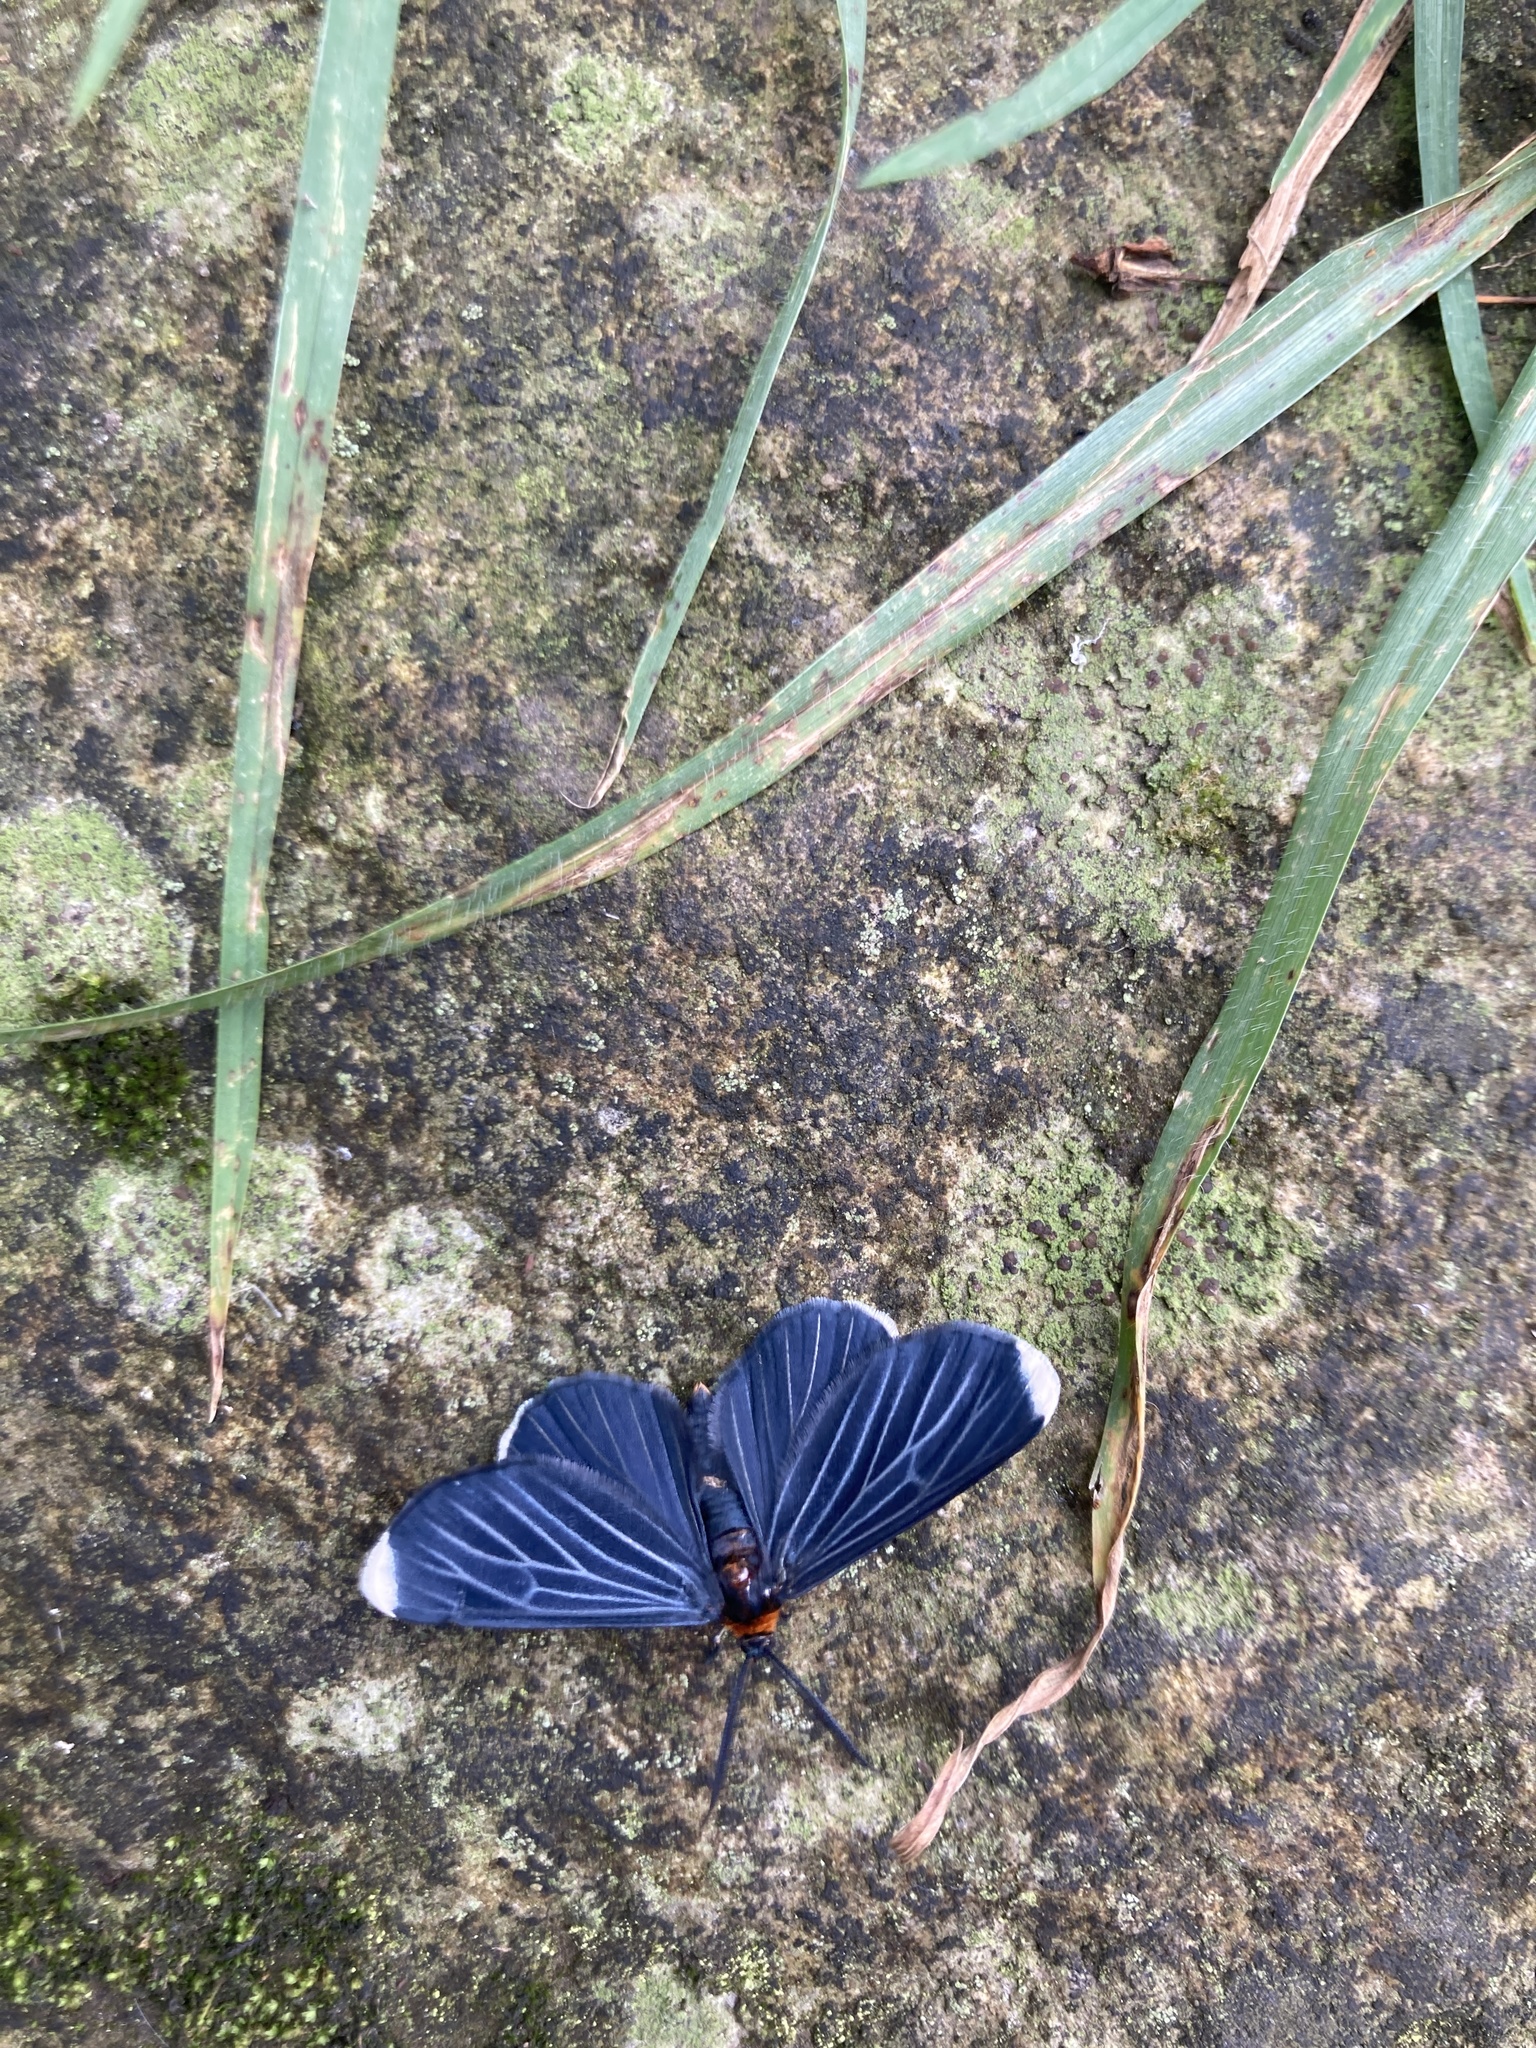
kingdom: Animalia
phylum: Arthropoda
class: Insecta
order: Lepidoptera
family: Geometridae
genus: Melanchroia
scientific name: Melanchroia chephise
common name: White-tipped black
